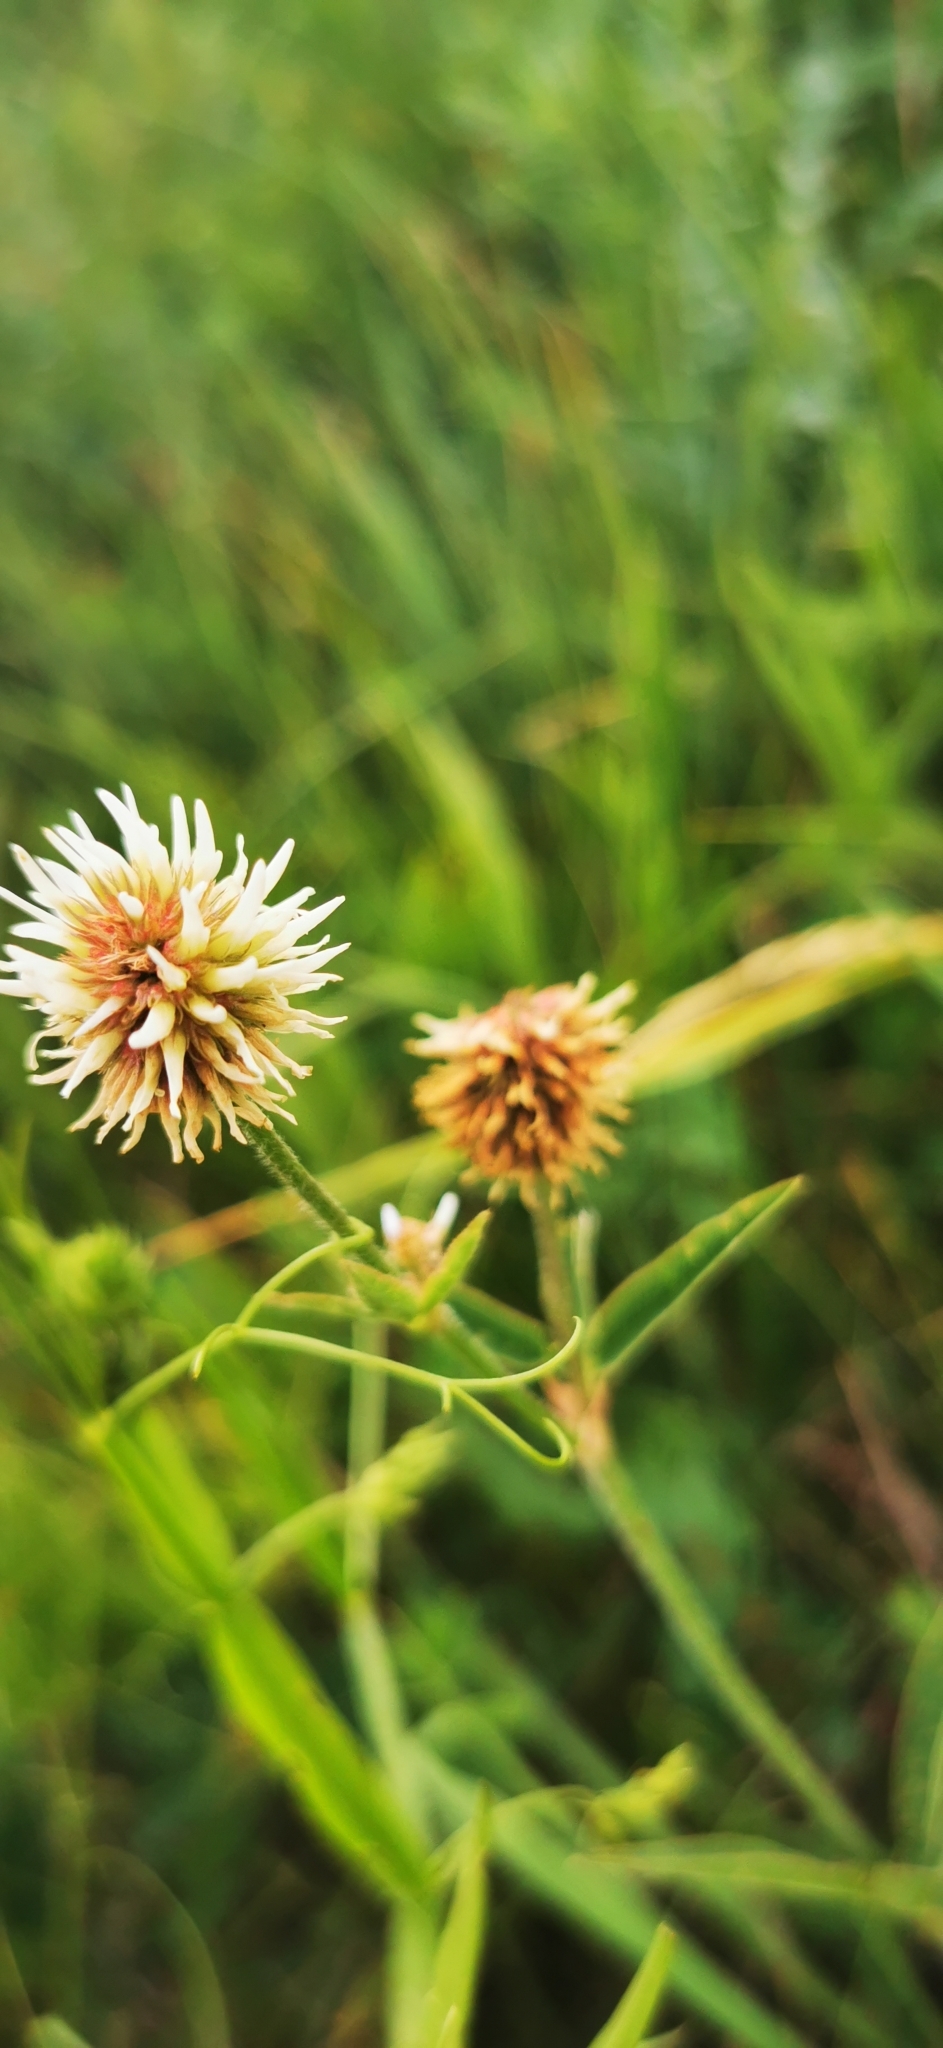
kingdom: Plantae
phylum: Tracheophyta
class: Magnoliopsida
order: Fabales
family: Fabaceae
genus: Trifolium
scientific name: Trifolium montanum
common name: Mountain clover
